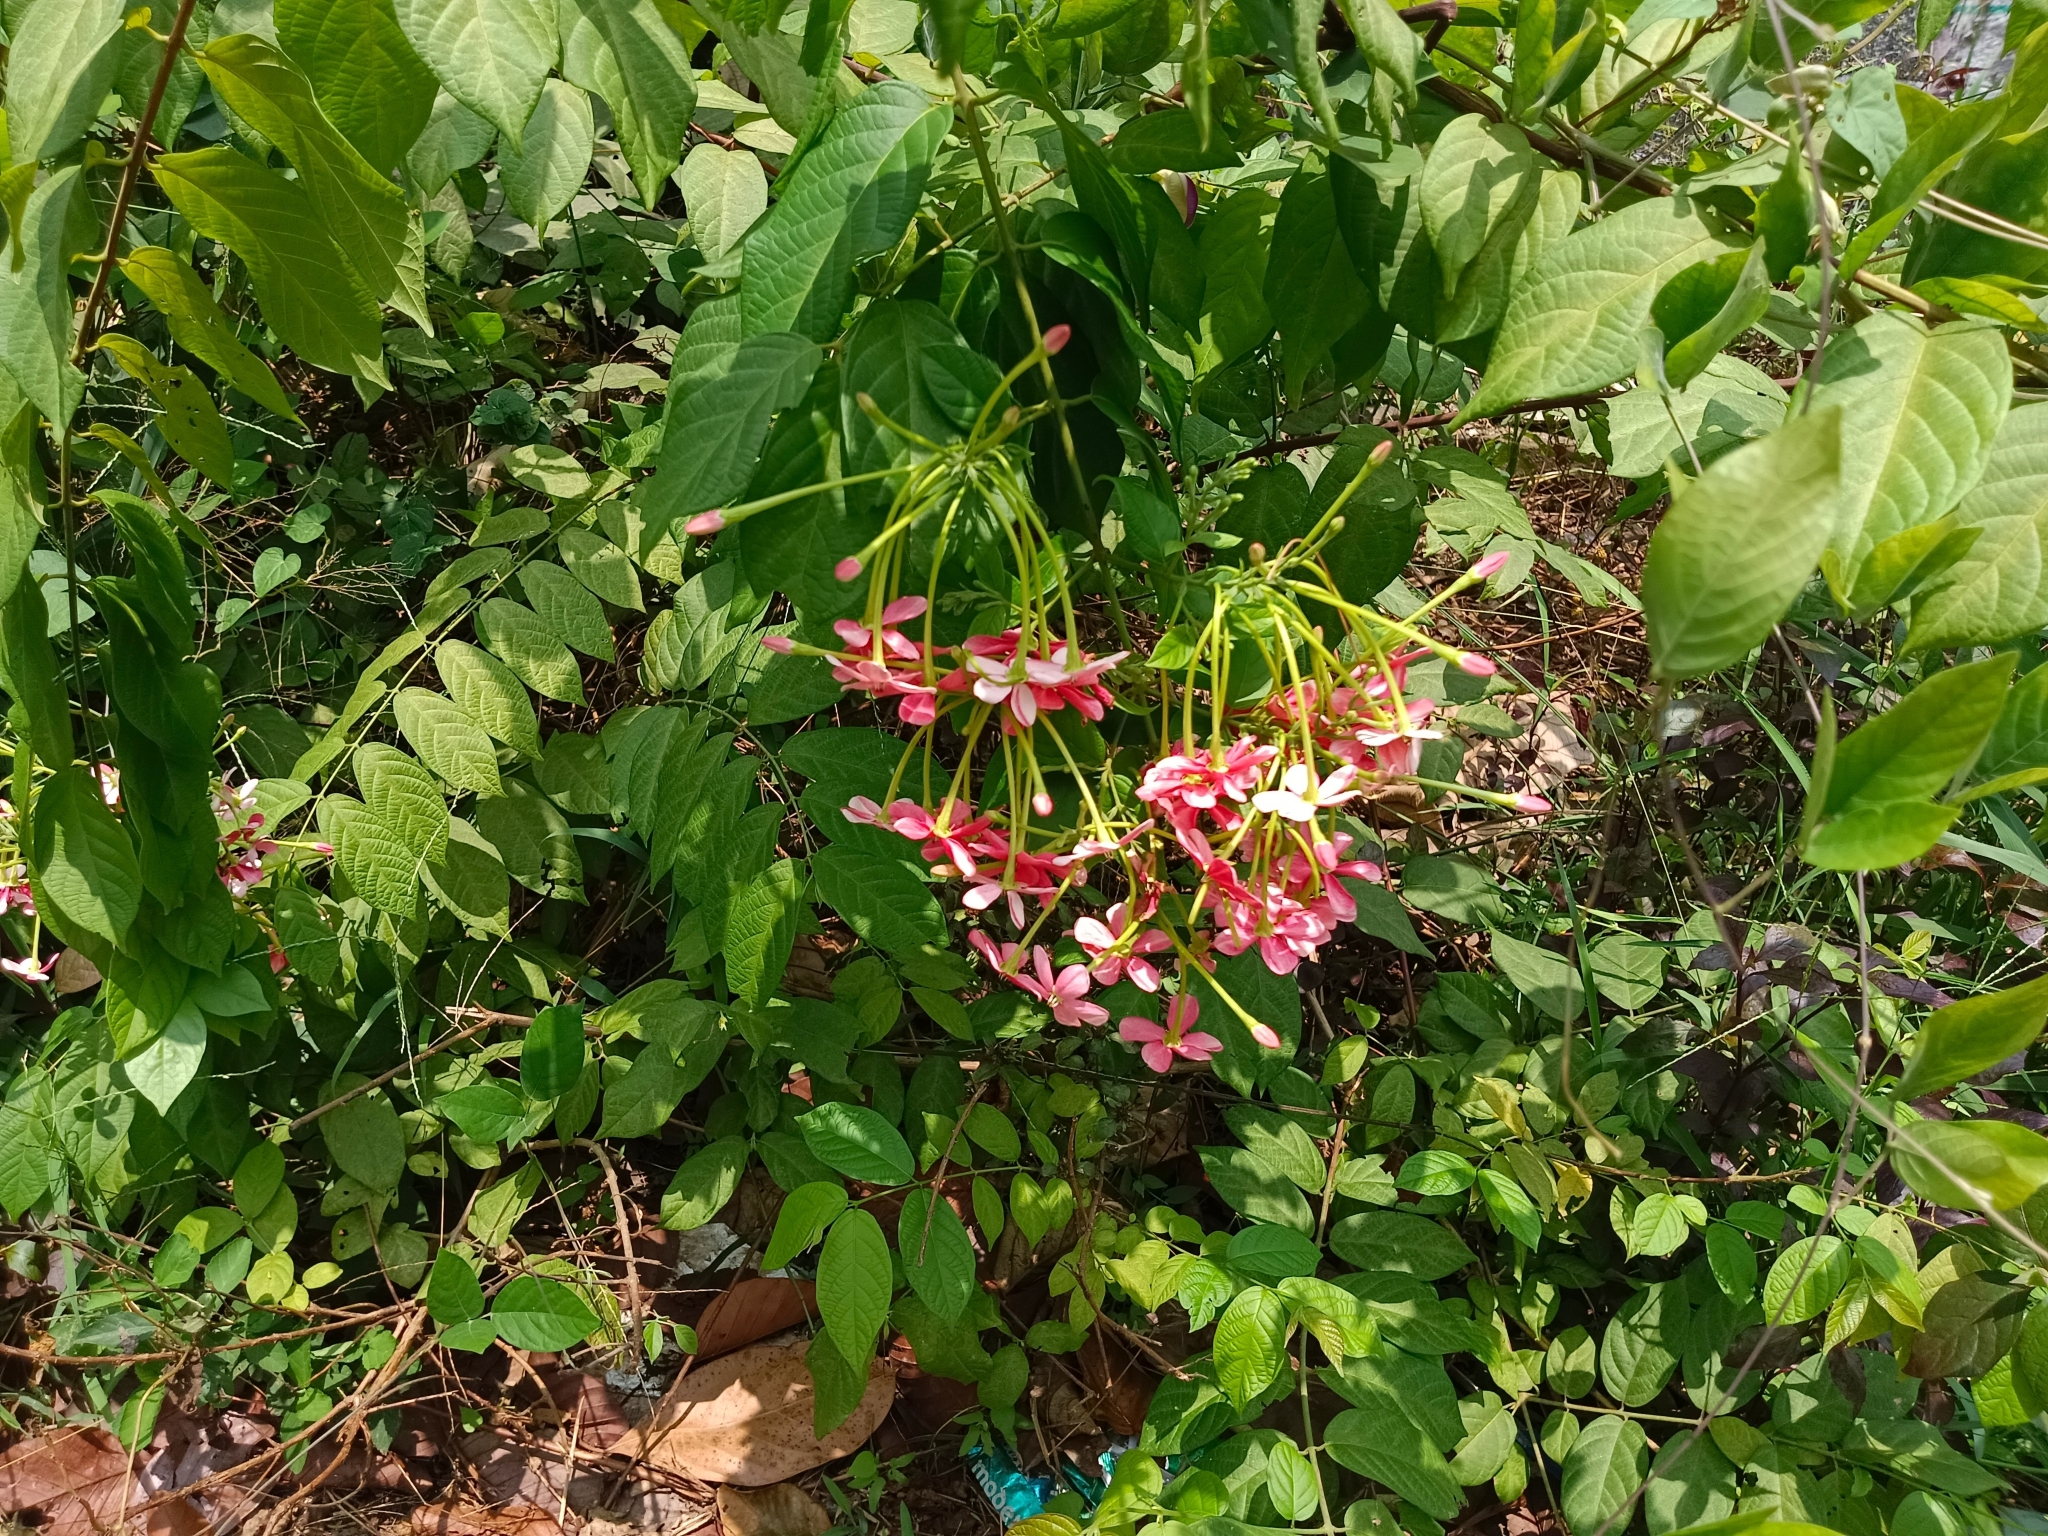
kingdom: Plantae
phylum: Tracheophyta
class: Magnoliopsida
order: Myrtales
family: Combretaceae
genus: Combretum
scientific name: Combretum indicum
